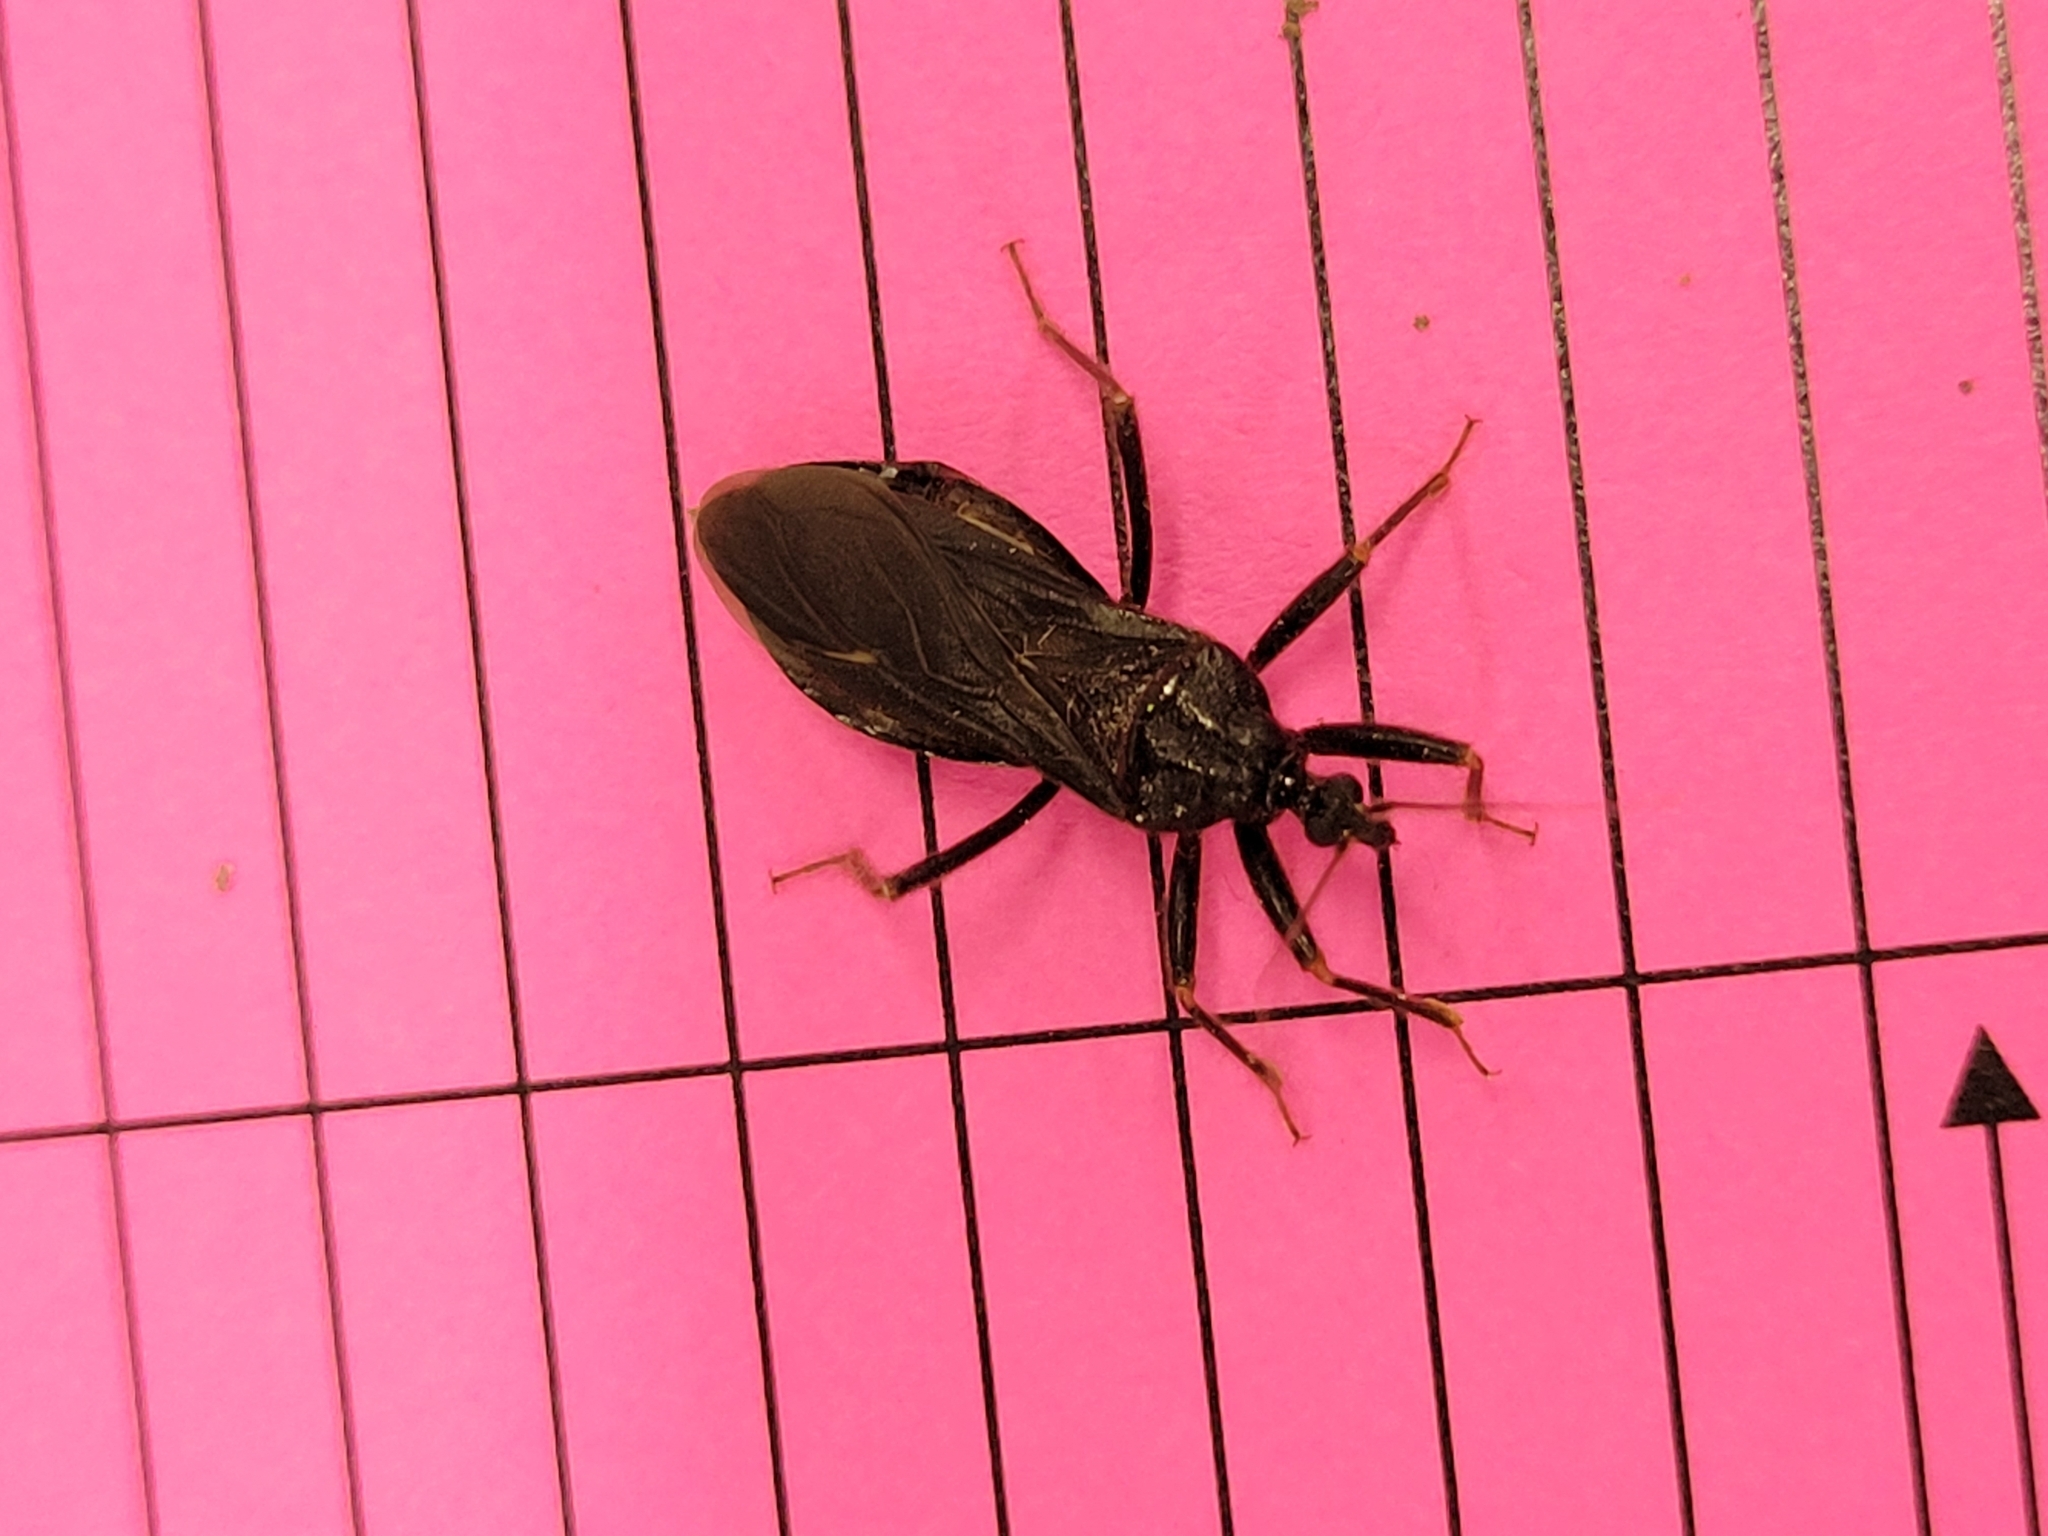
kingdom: Animalia
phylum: Arthropoda
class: Insecta
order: Hemiptera
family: Reduviidae
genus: Reduvius
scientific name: Reduvius personatus
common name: Masked hunter
